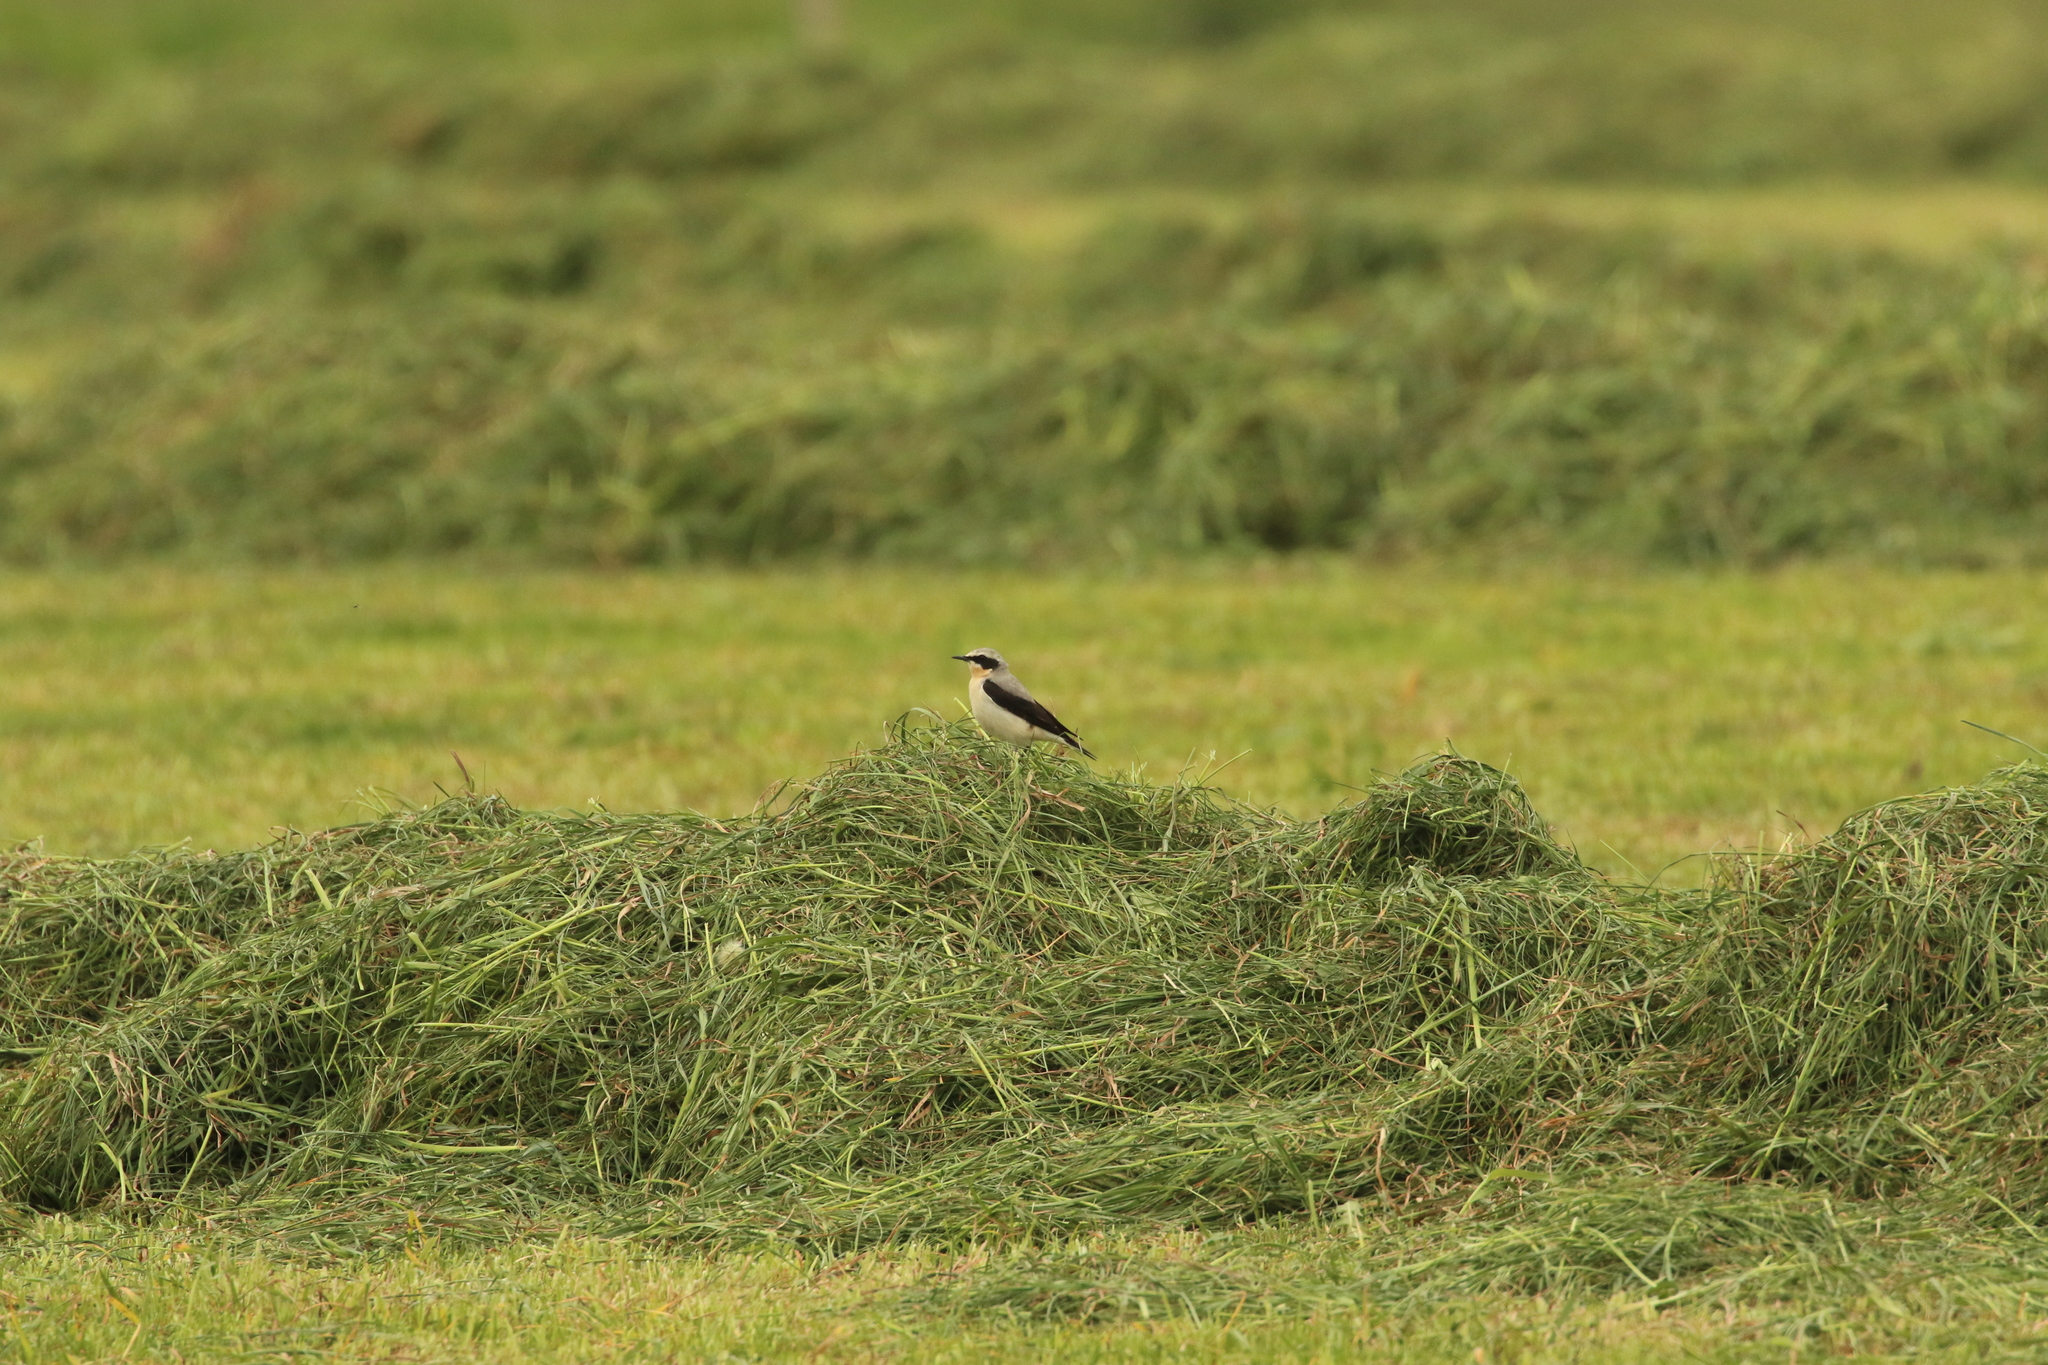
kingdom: Animalia
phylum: Chordata
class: Aves
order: Passeriformes
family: Muscicapidae
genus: Oenanthe
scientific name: Oenanthe oenanthe
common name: Northern wheatear
